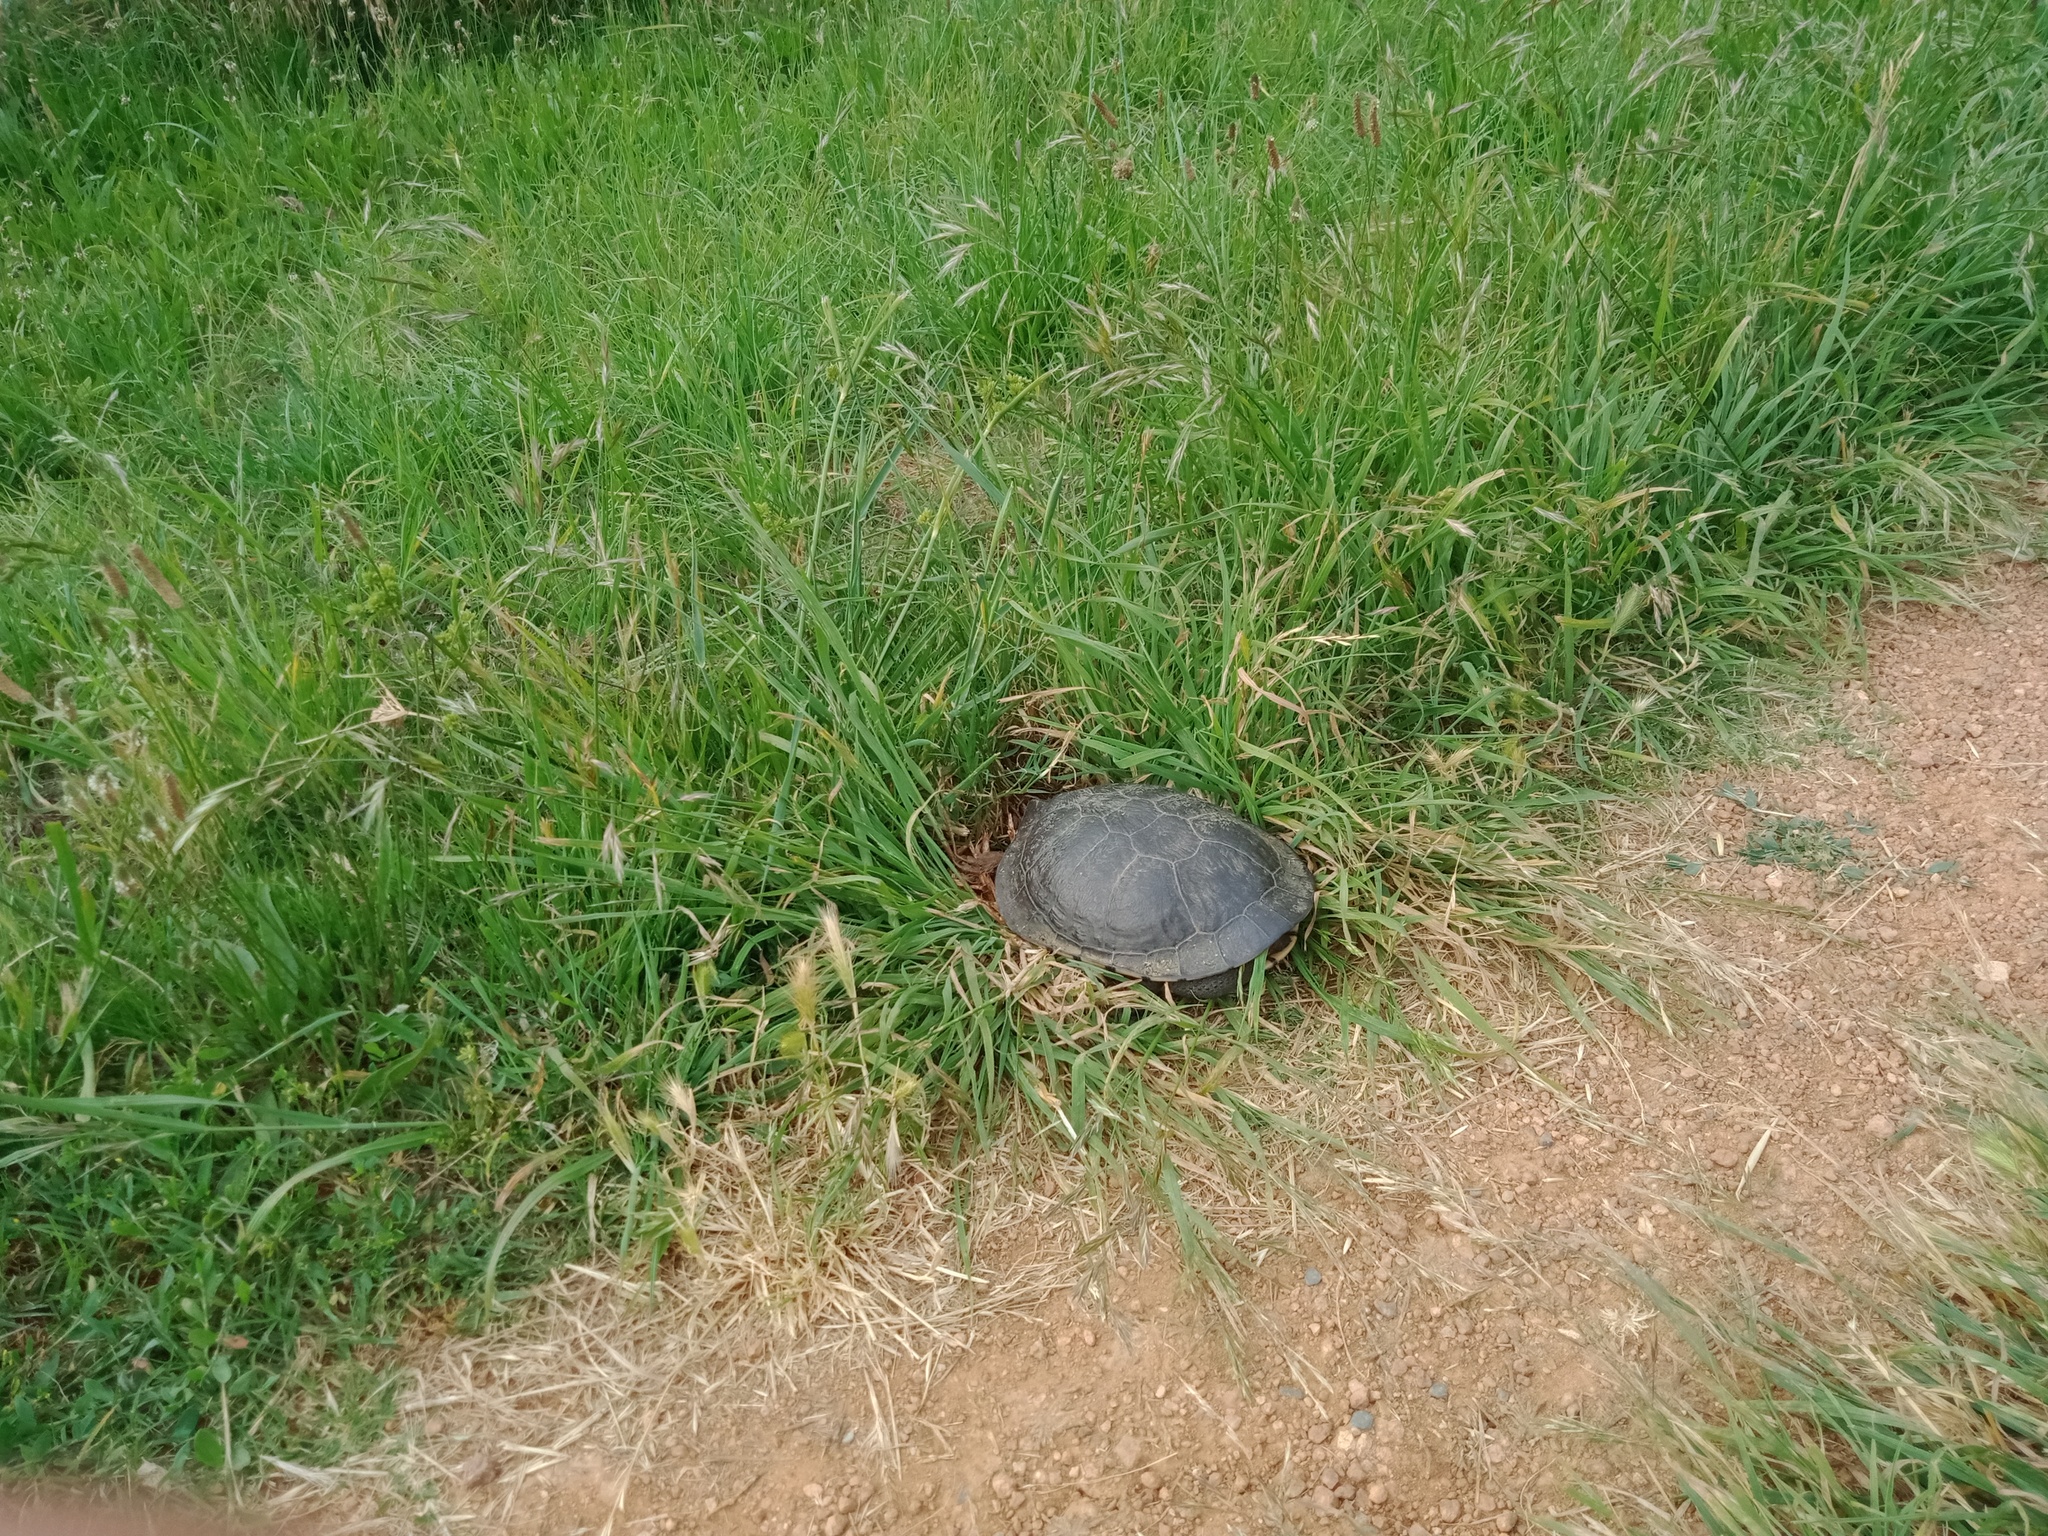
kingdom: Animalia
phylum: Chordata
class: Testudines
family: Chelidae
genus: Chelodina
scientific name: Chelodina longicollis
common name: Eastern snake-necked turtle
